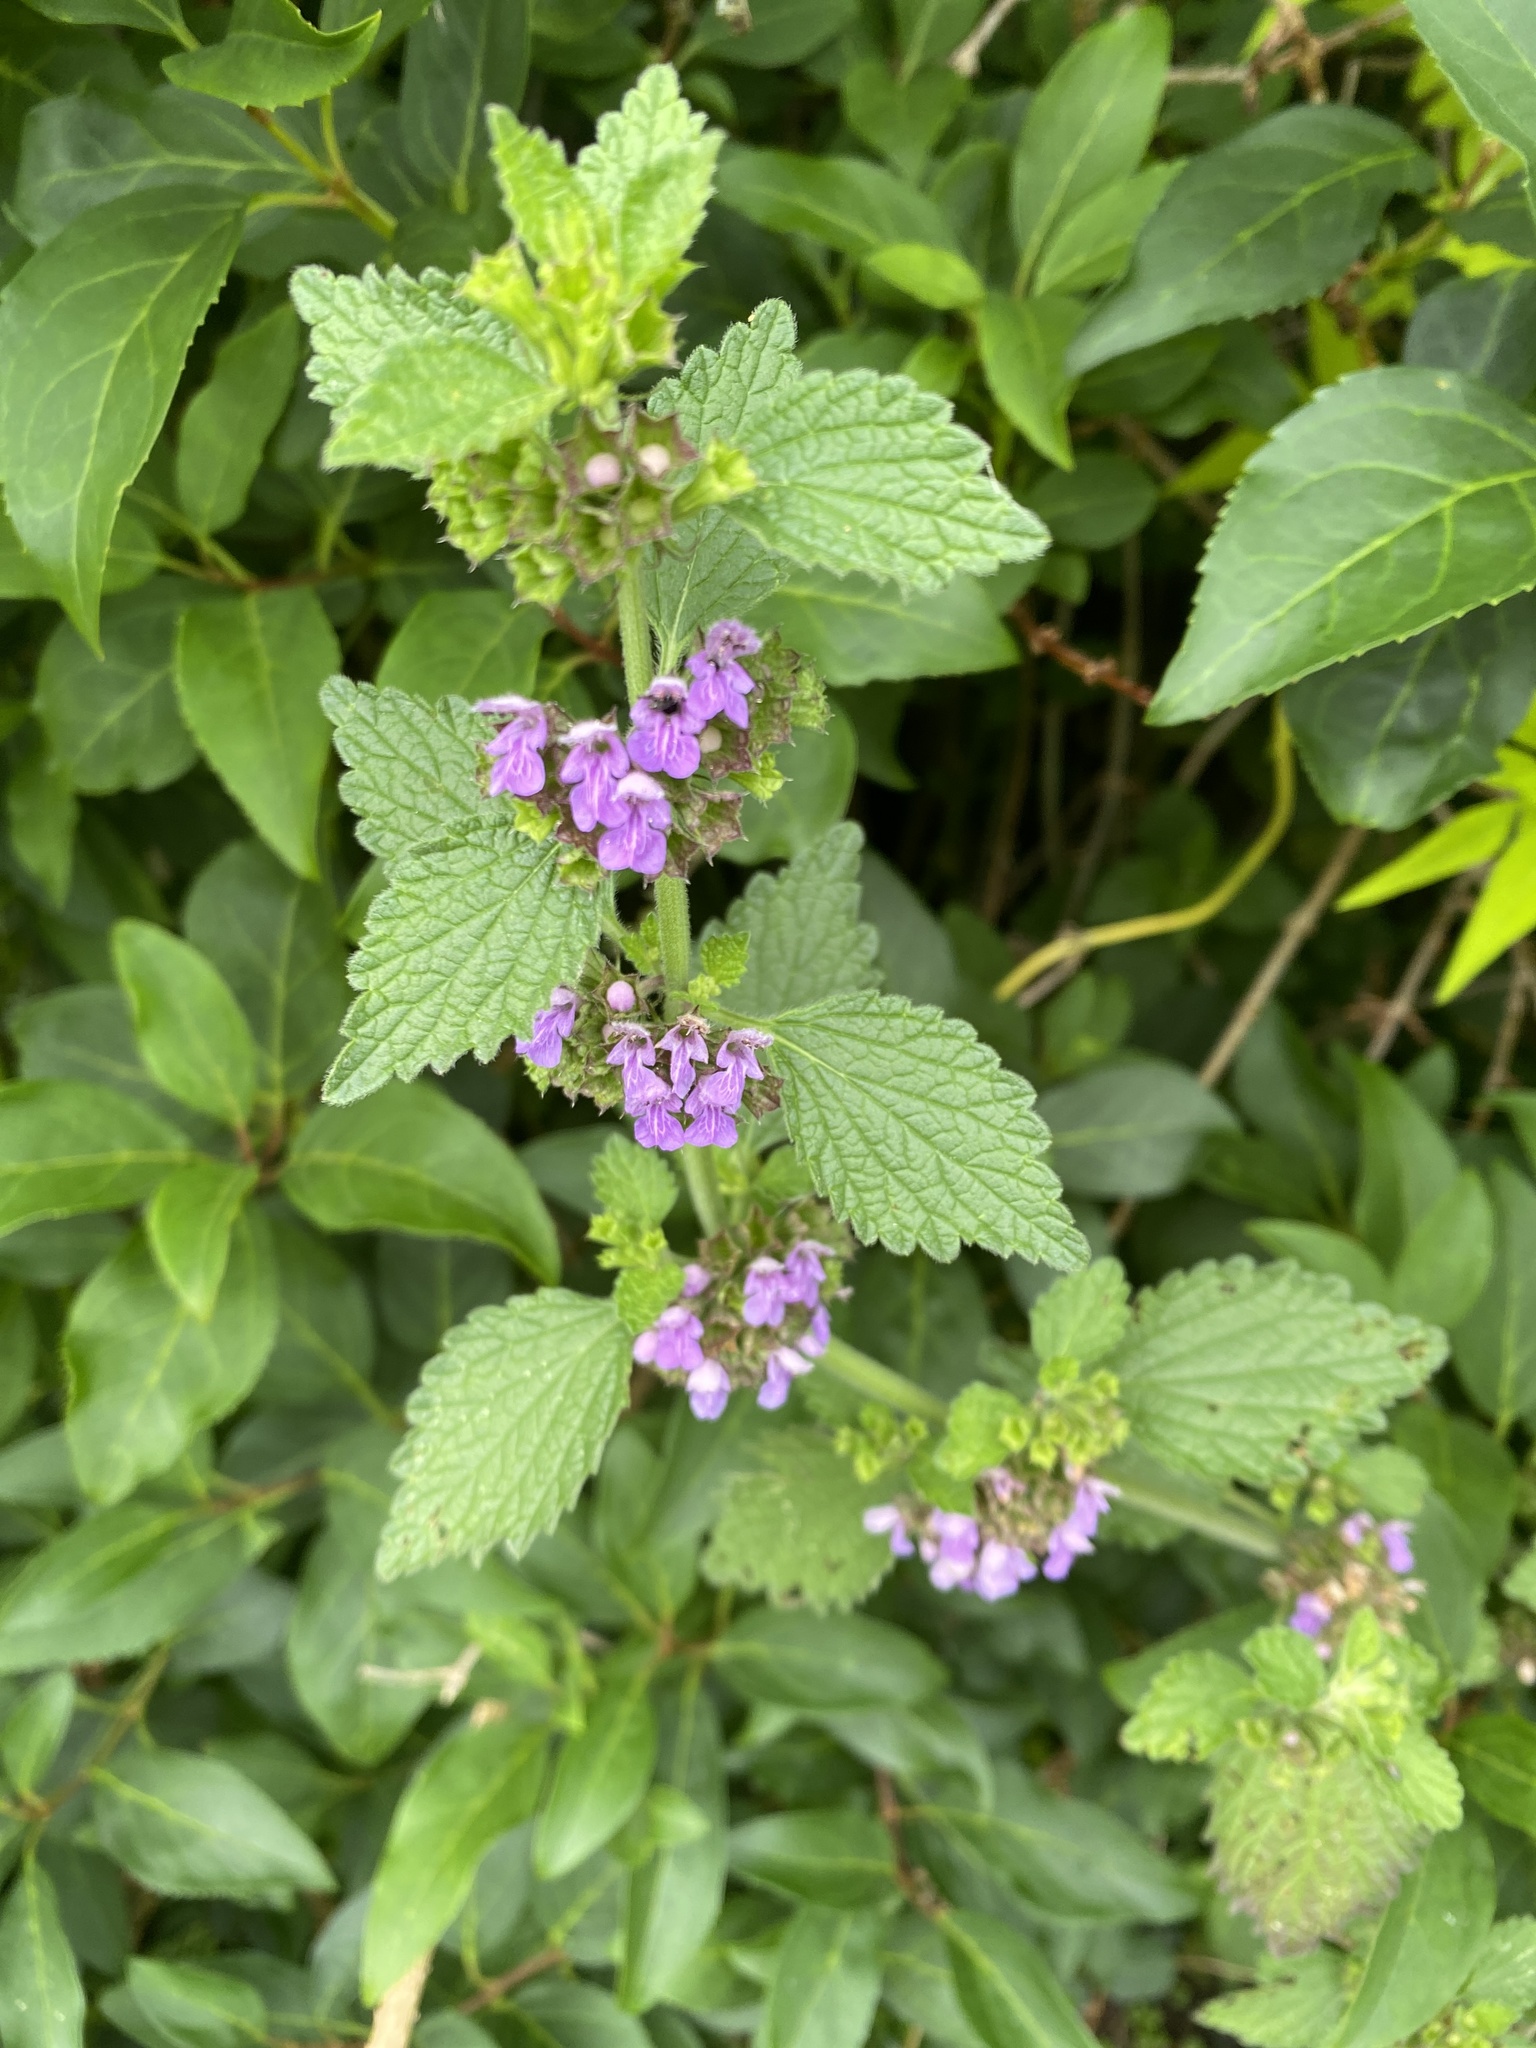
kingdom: Plantae
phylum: Tracheophyta
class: Magnoliopsida
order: Lamiales
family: Lamiaceae
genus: Ballota
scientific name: Ballota nigra
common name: Black horehound
